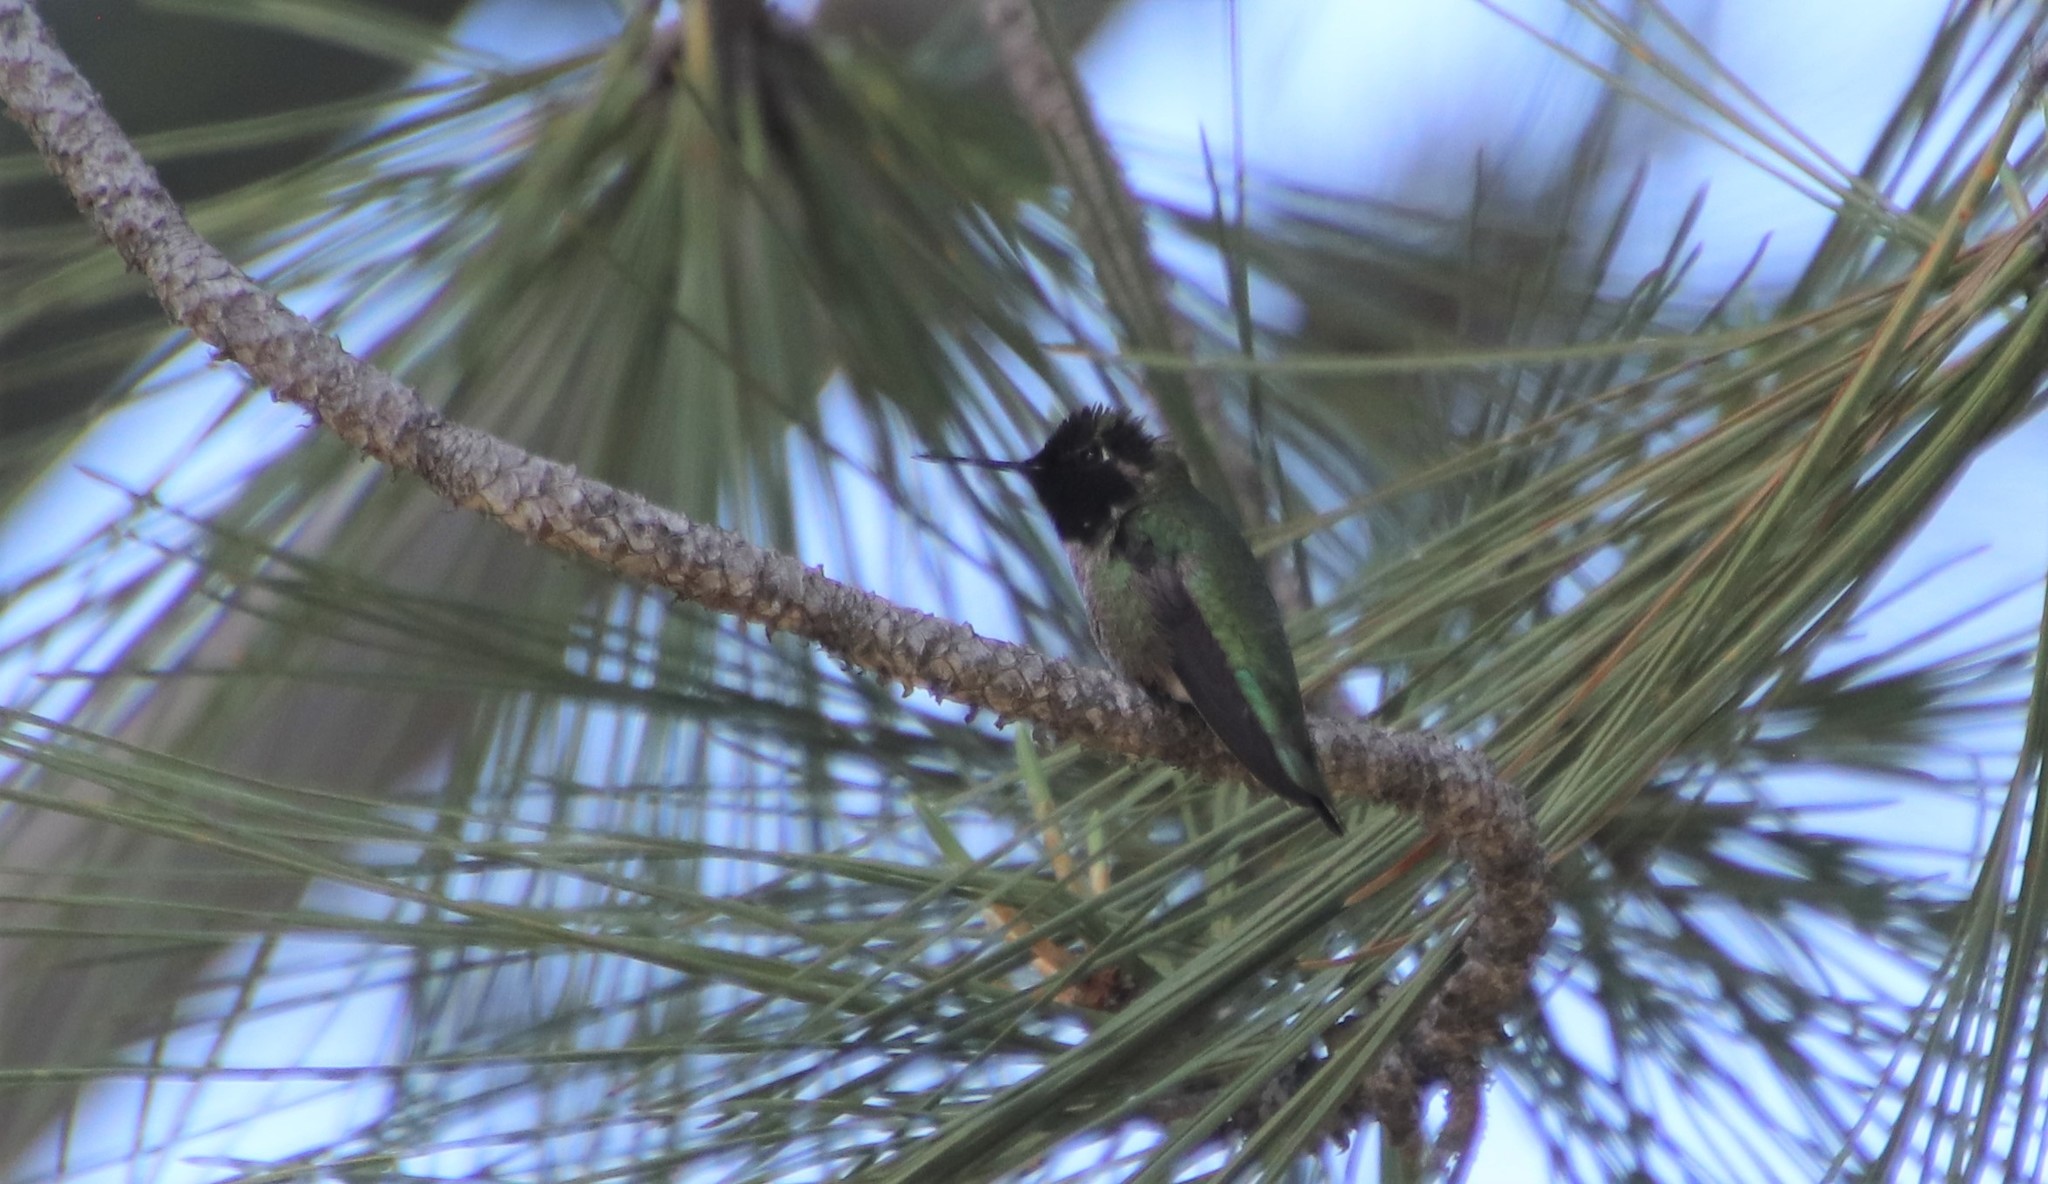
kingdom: Animalia
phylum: Chordata
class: Aves
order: Apodiformes
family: Trochilidae
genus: Calypte
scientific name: Calypte anna
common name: Anna's hummingbird
